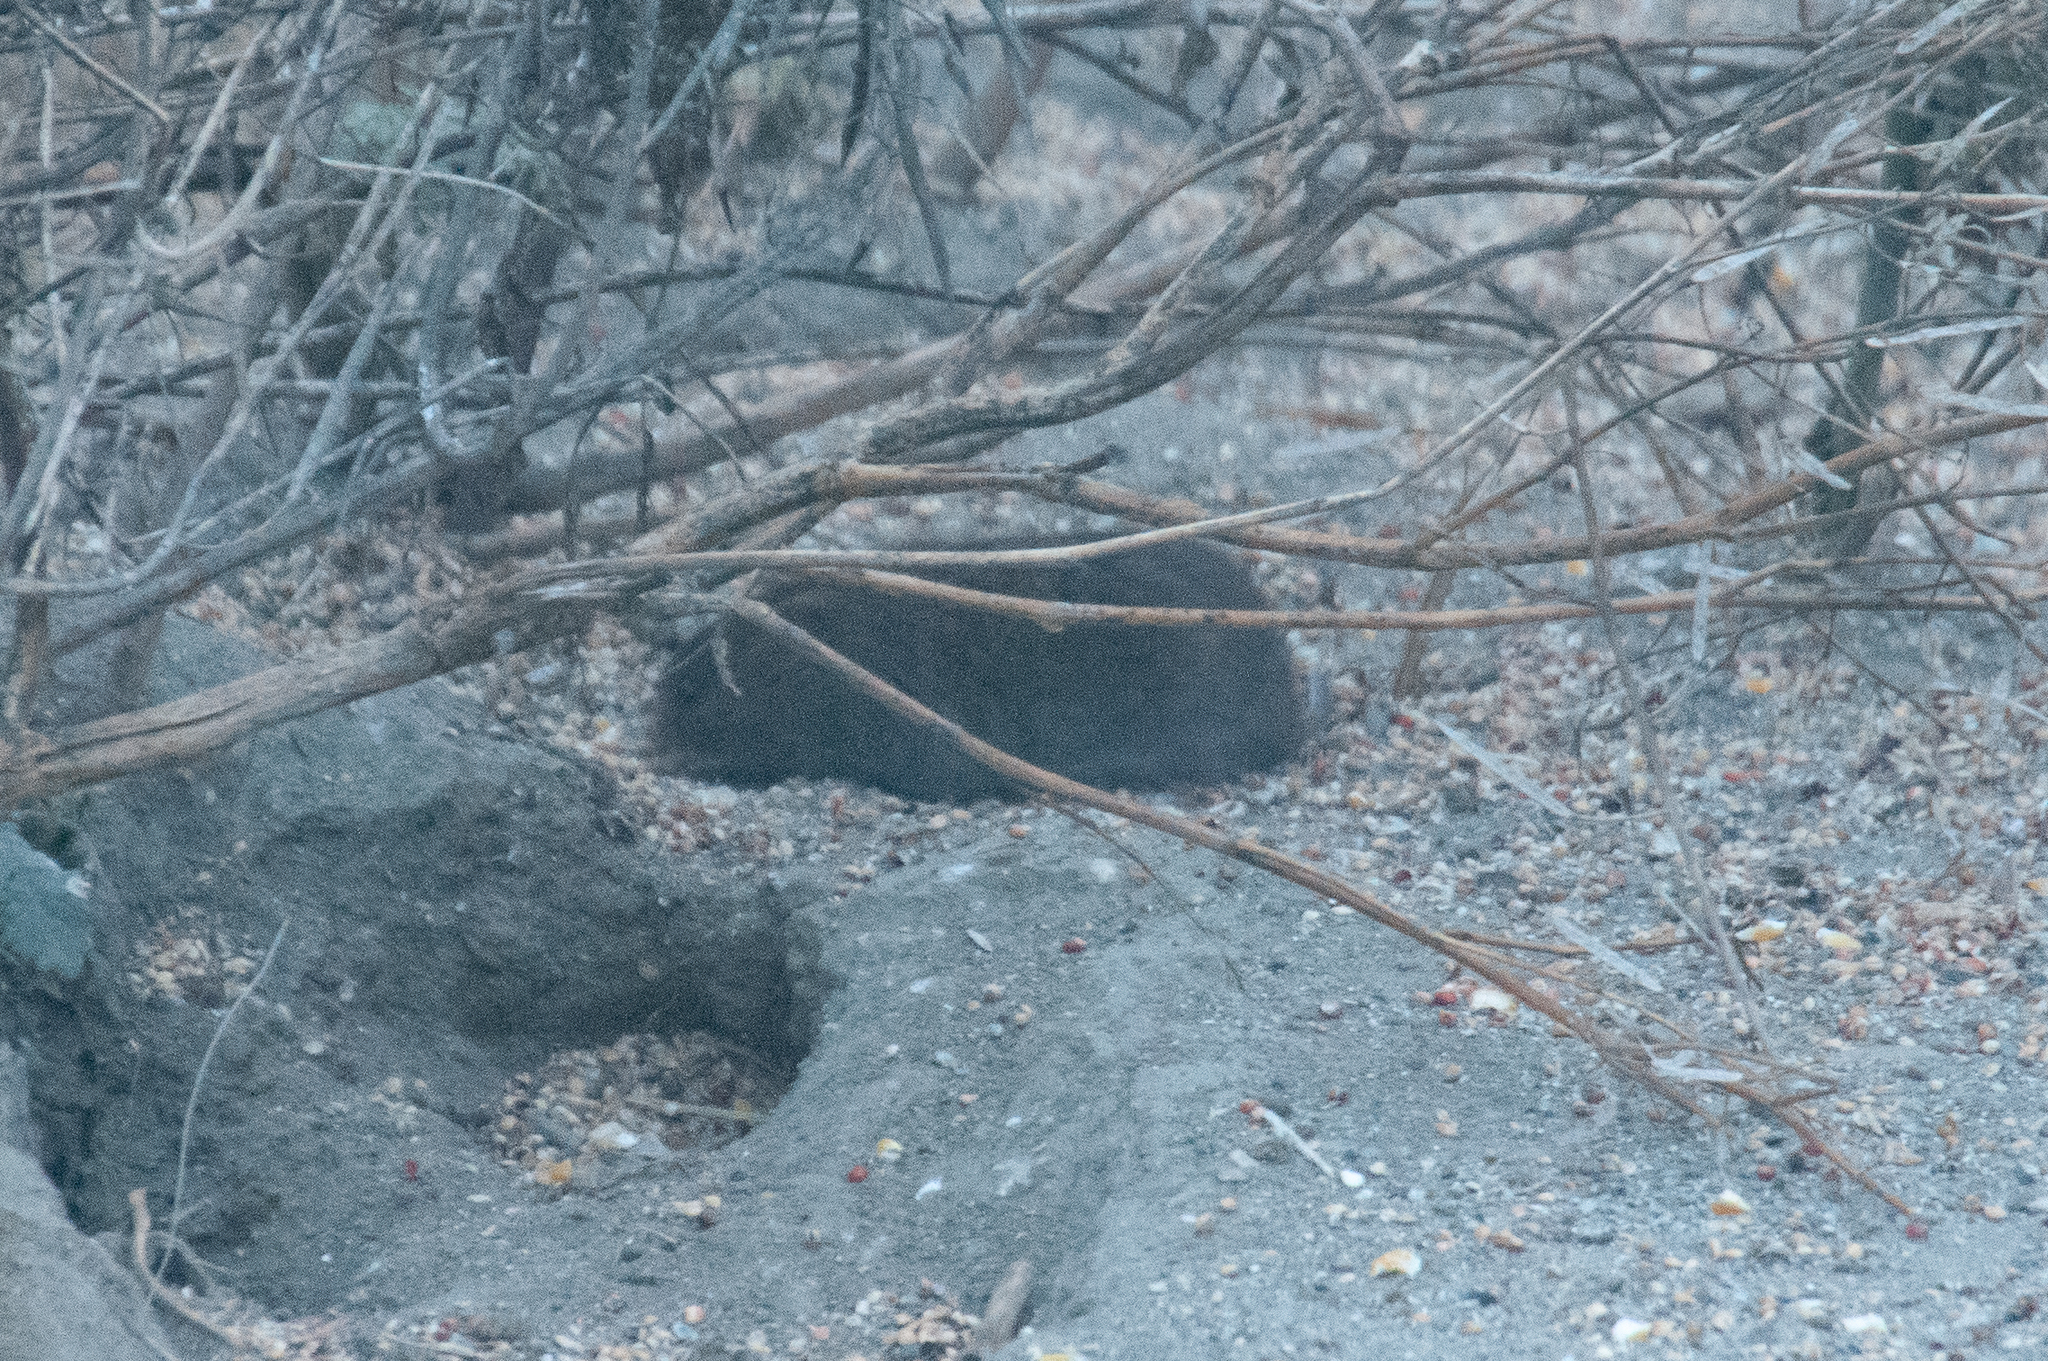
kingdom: Animalia
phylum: Chordata
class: Mammalia
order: Rodentia
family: Cricetidae
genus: Microtus
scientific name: Microtus californicus
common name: California vole
